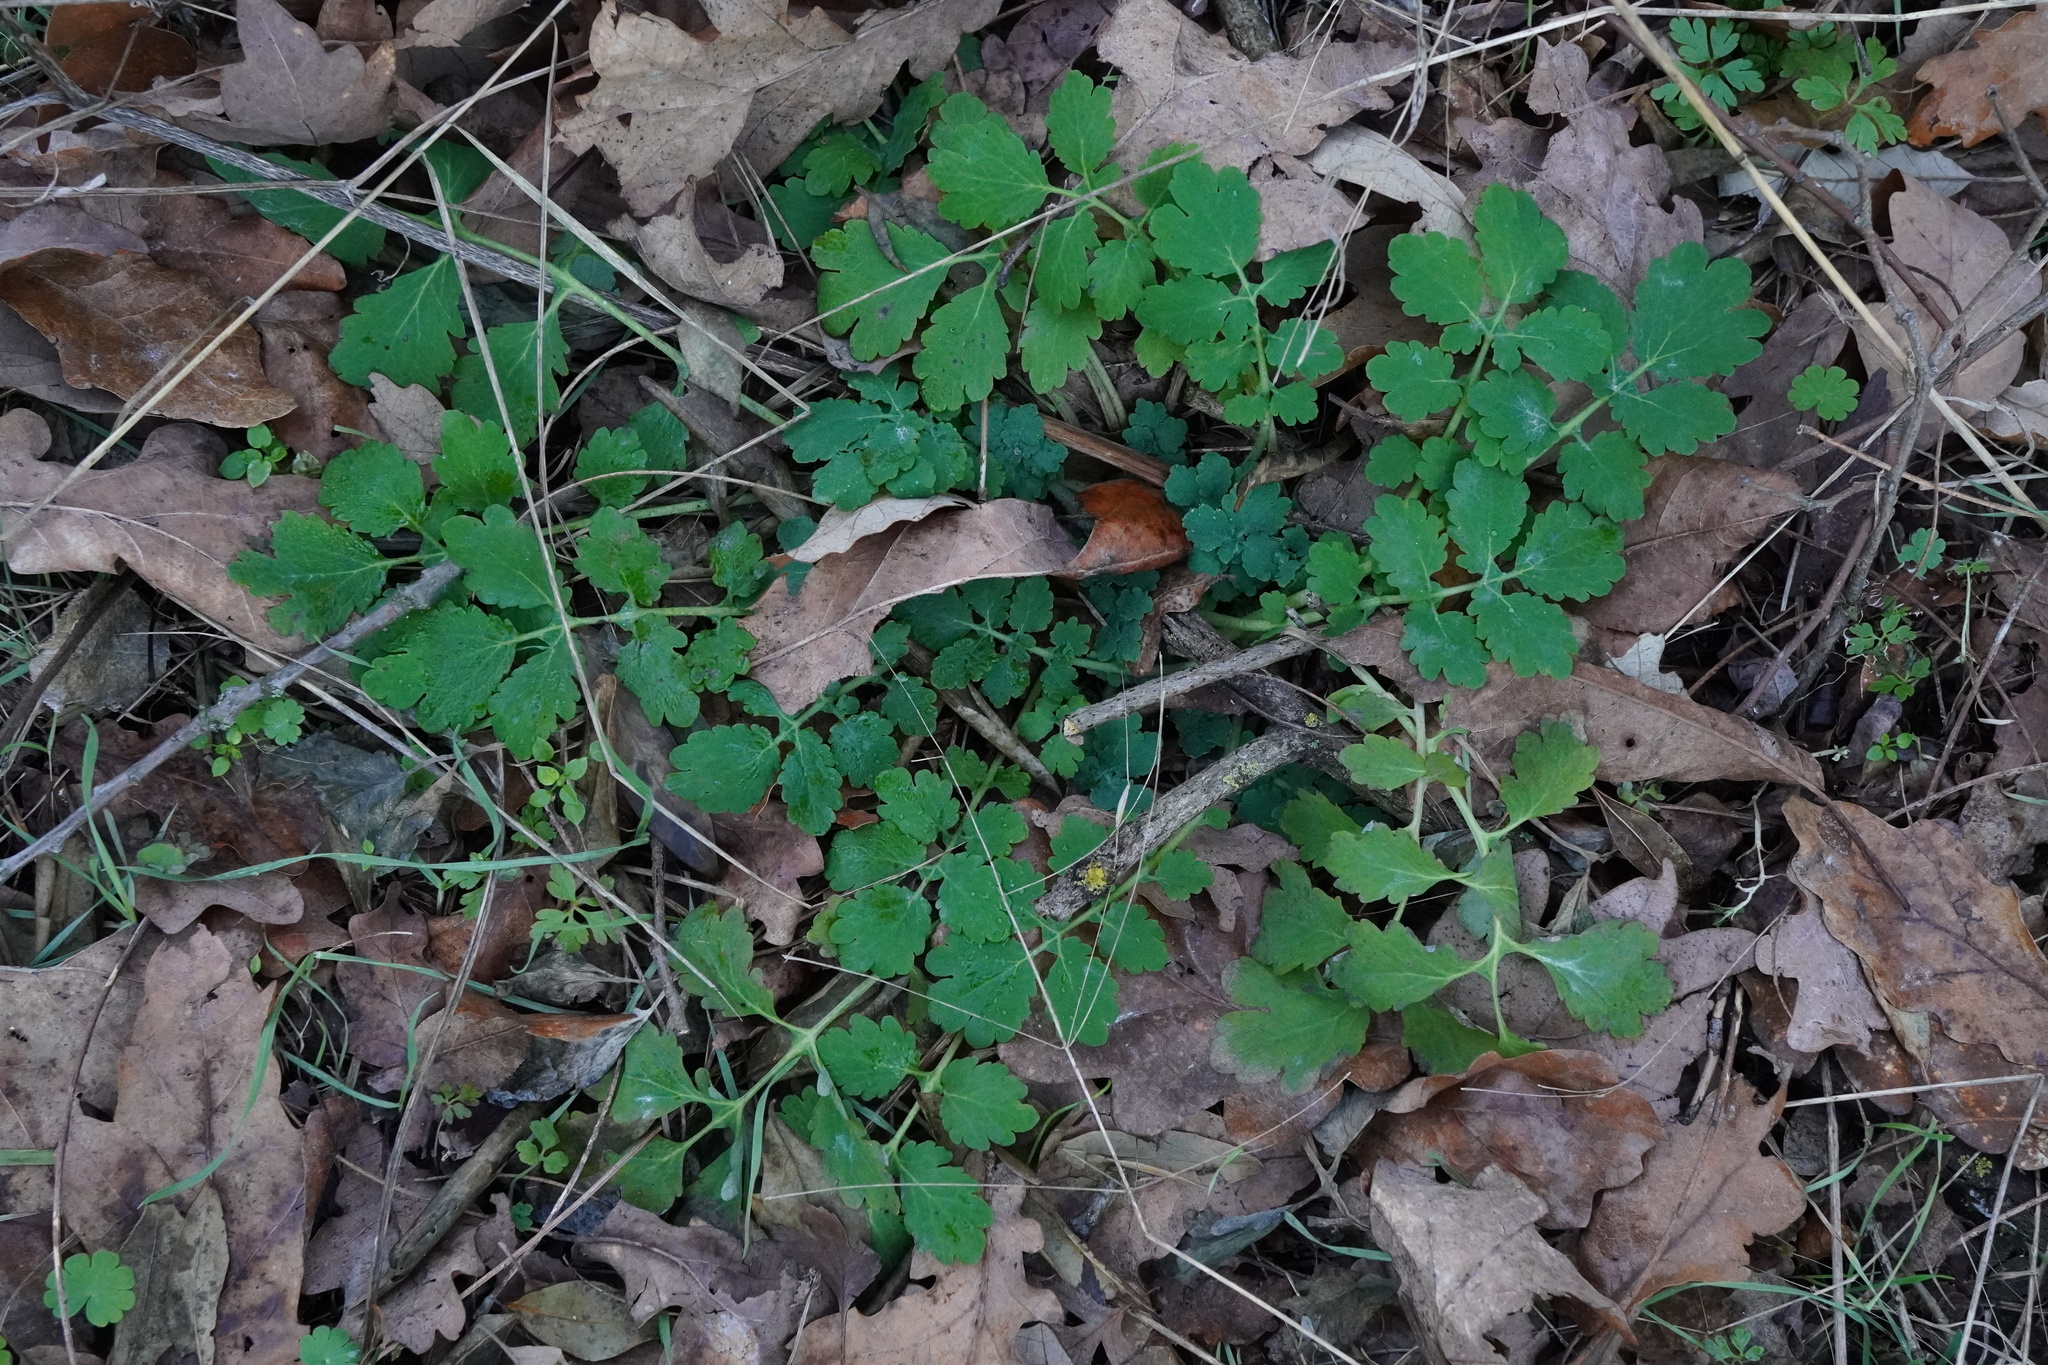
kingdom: Plantae
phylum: Tracheophyta
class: Magnoliopsida
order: Ranunculales
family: Papaveraceae
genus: Chelidonium
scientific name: Chelidonium majus
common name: Greater celandine
